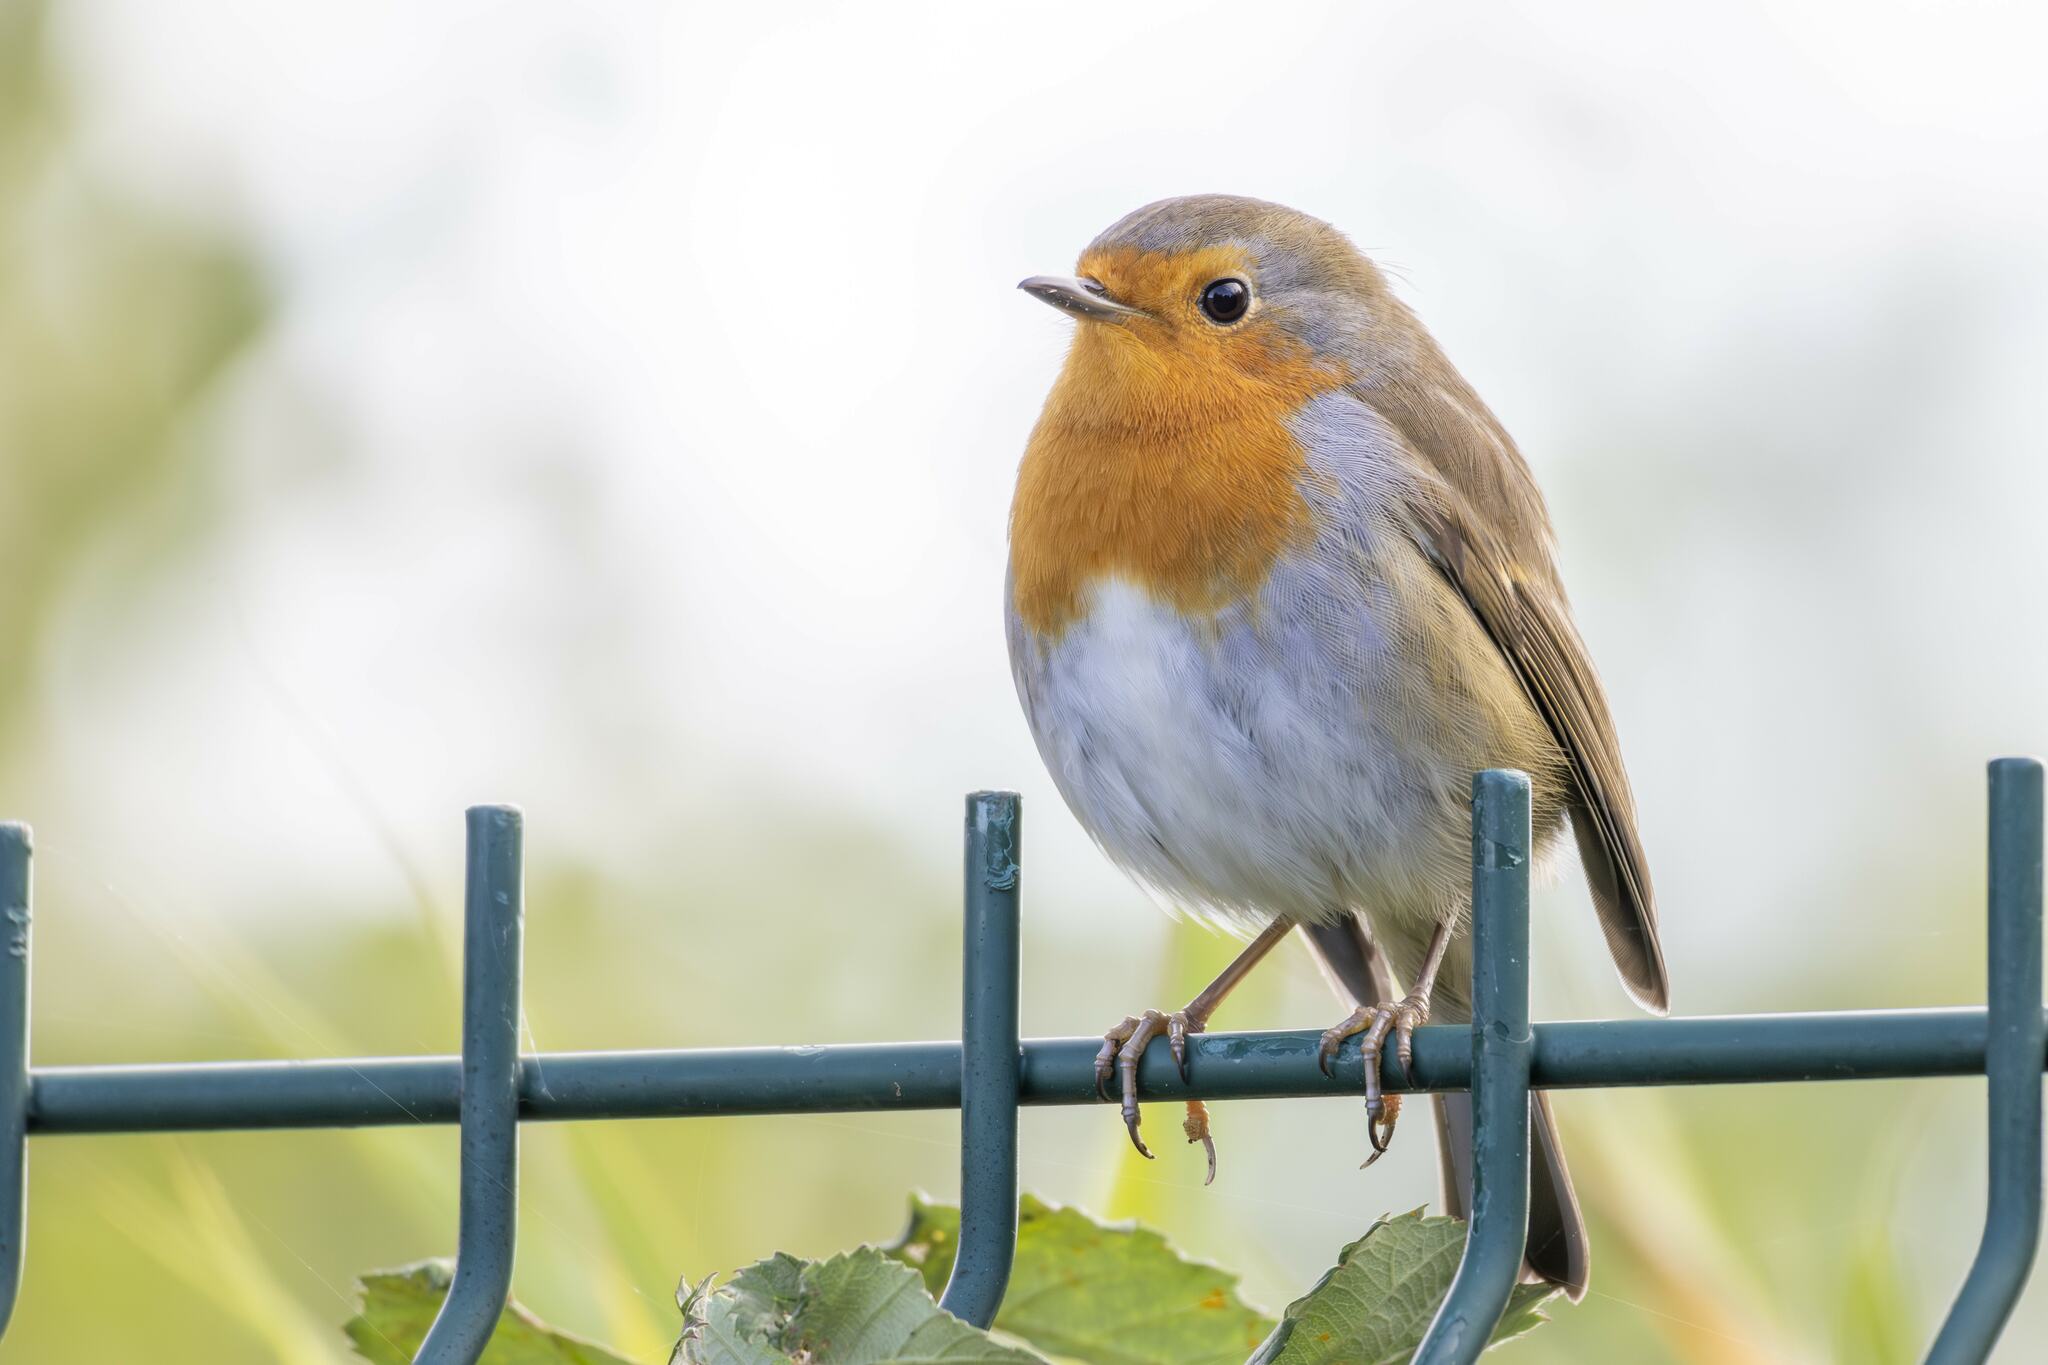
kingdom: Animalia
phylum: Chordata
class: Aves
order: Passeriformes
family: Muscicapidae
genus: Erithacus
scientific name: Erithacus rubecula
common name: European robin
